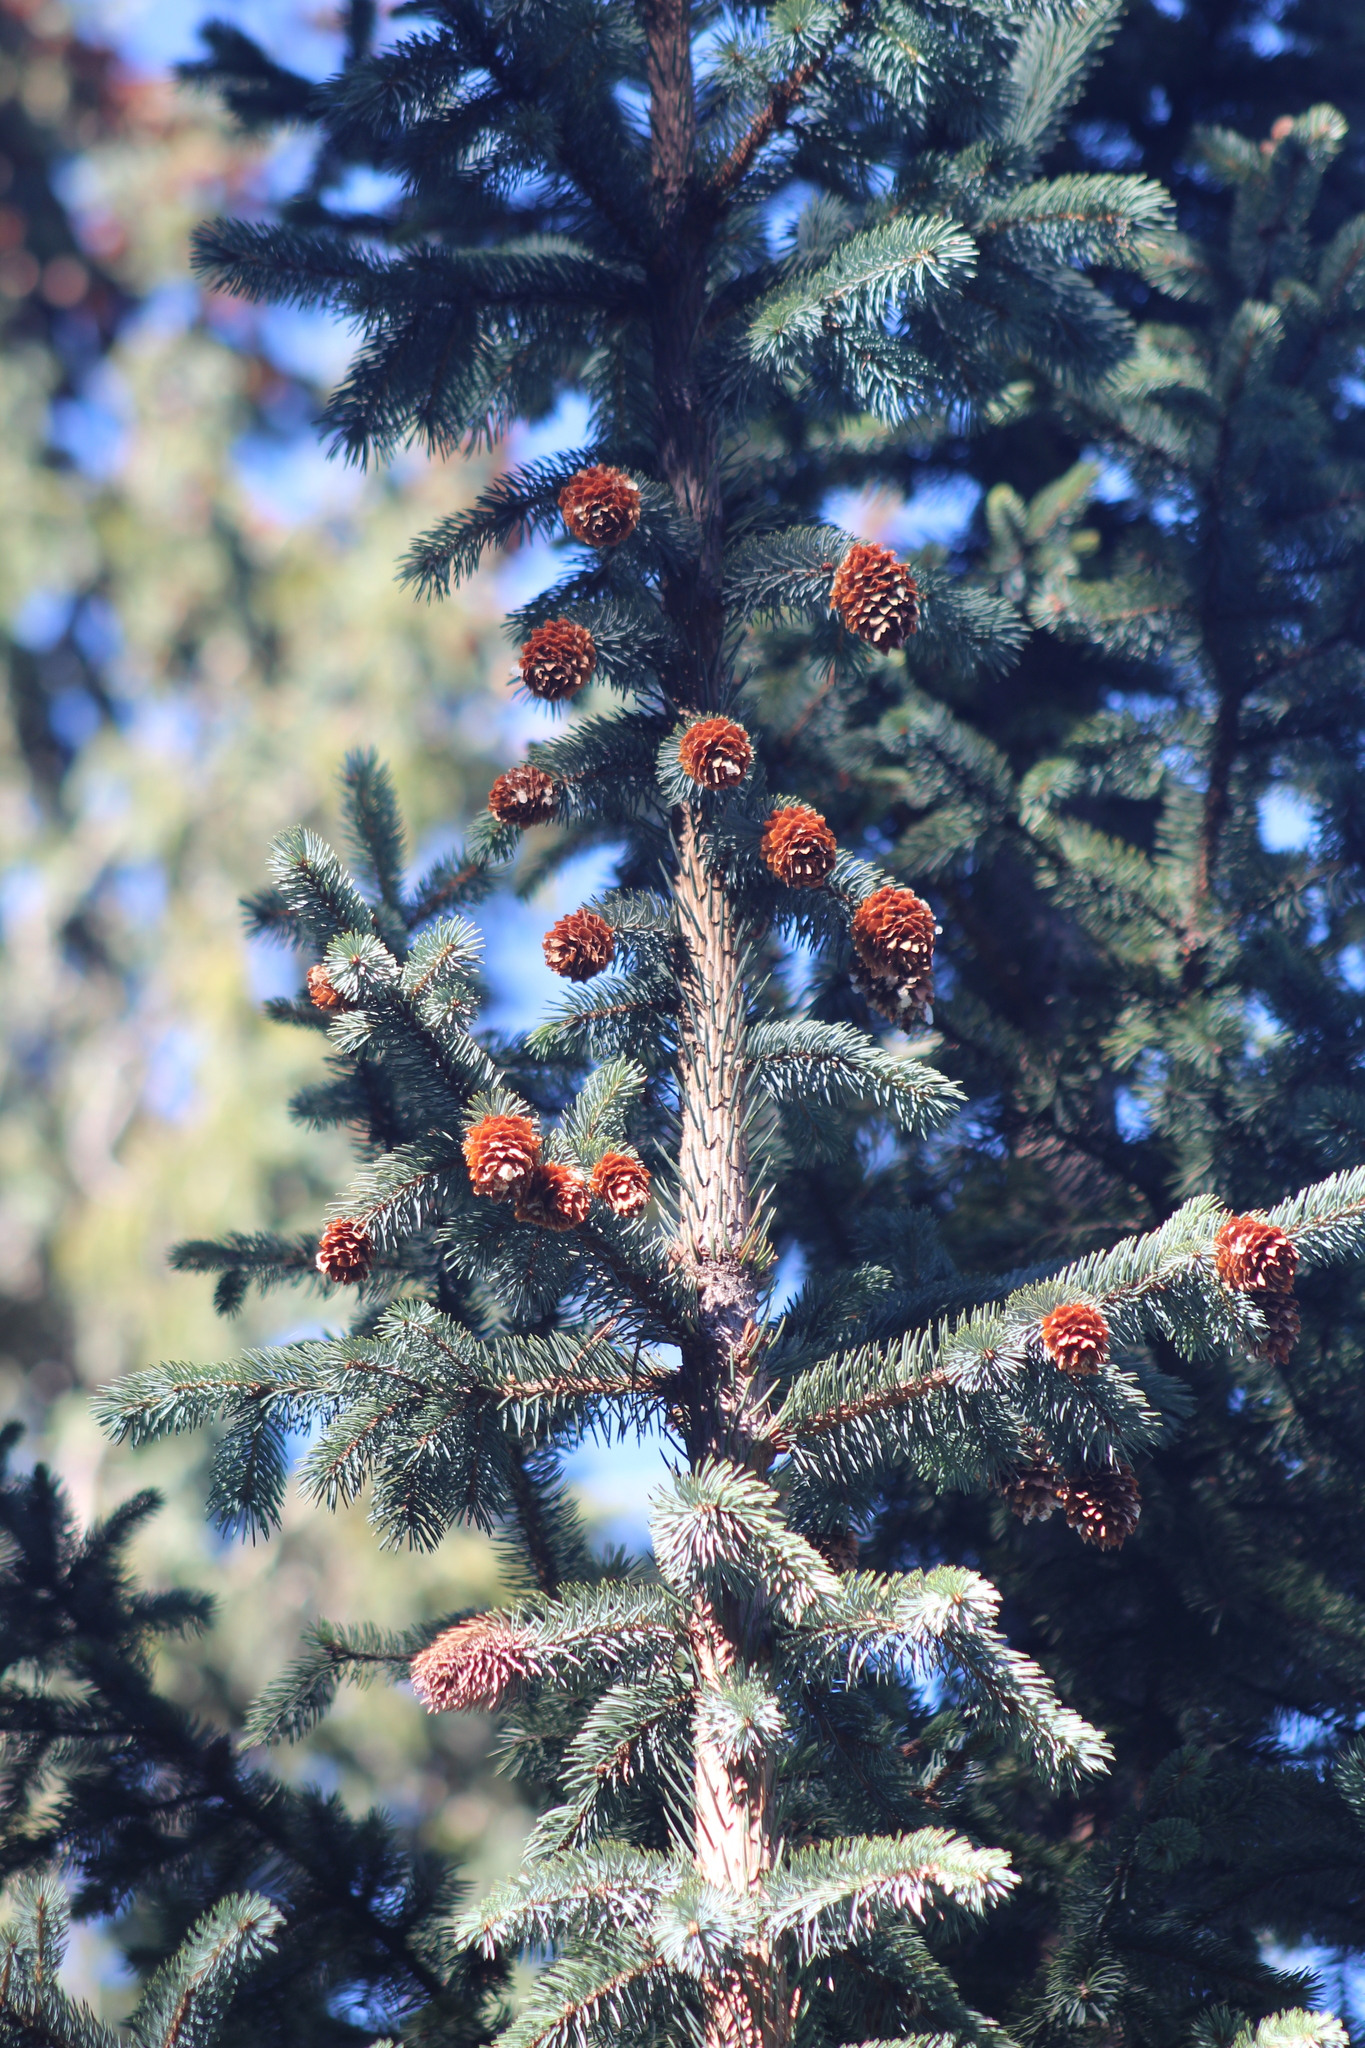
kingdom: Plantae
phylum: Tracheophyta
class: Pinopsida
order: Pinales
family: Pinaceae
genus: Picea
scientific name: Picea engelmannii
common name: Engelmann spruce
